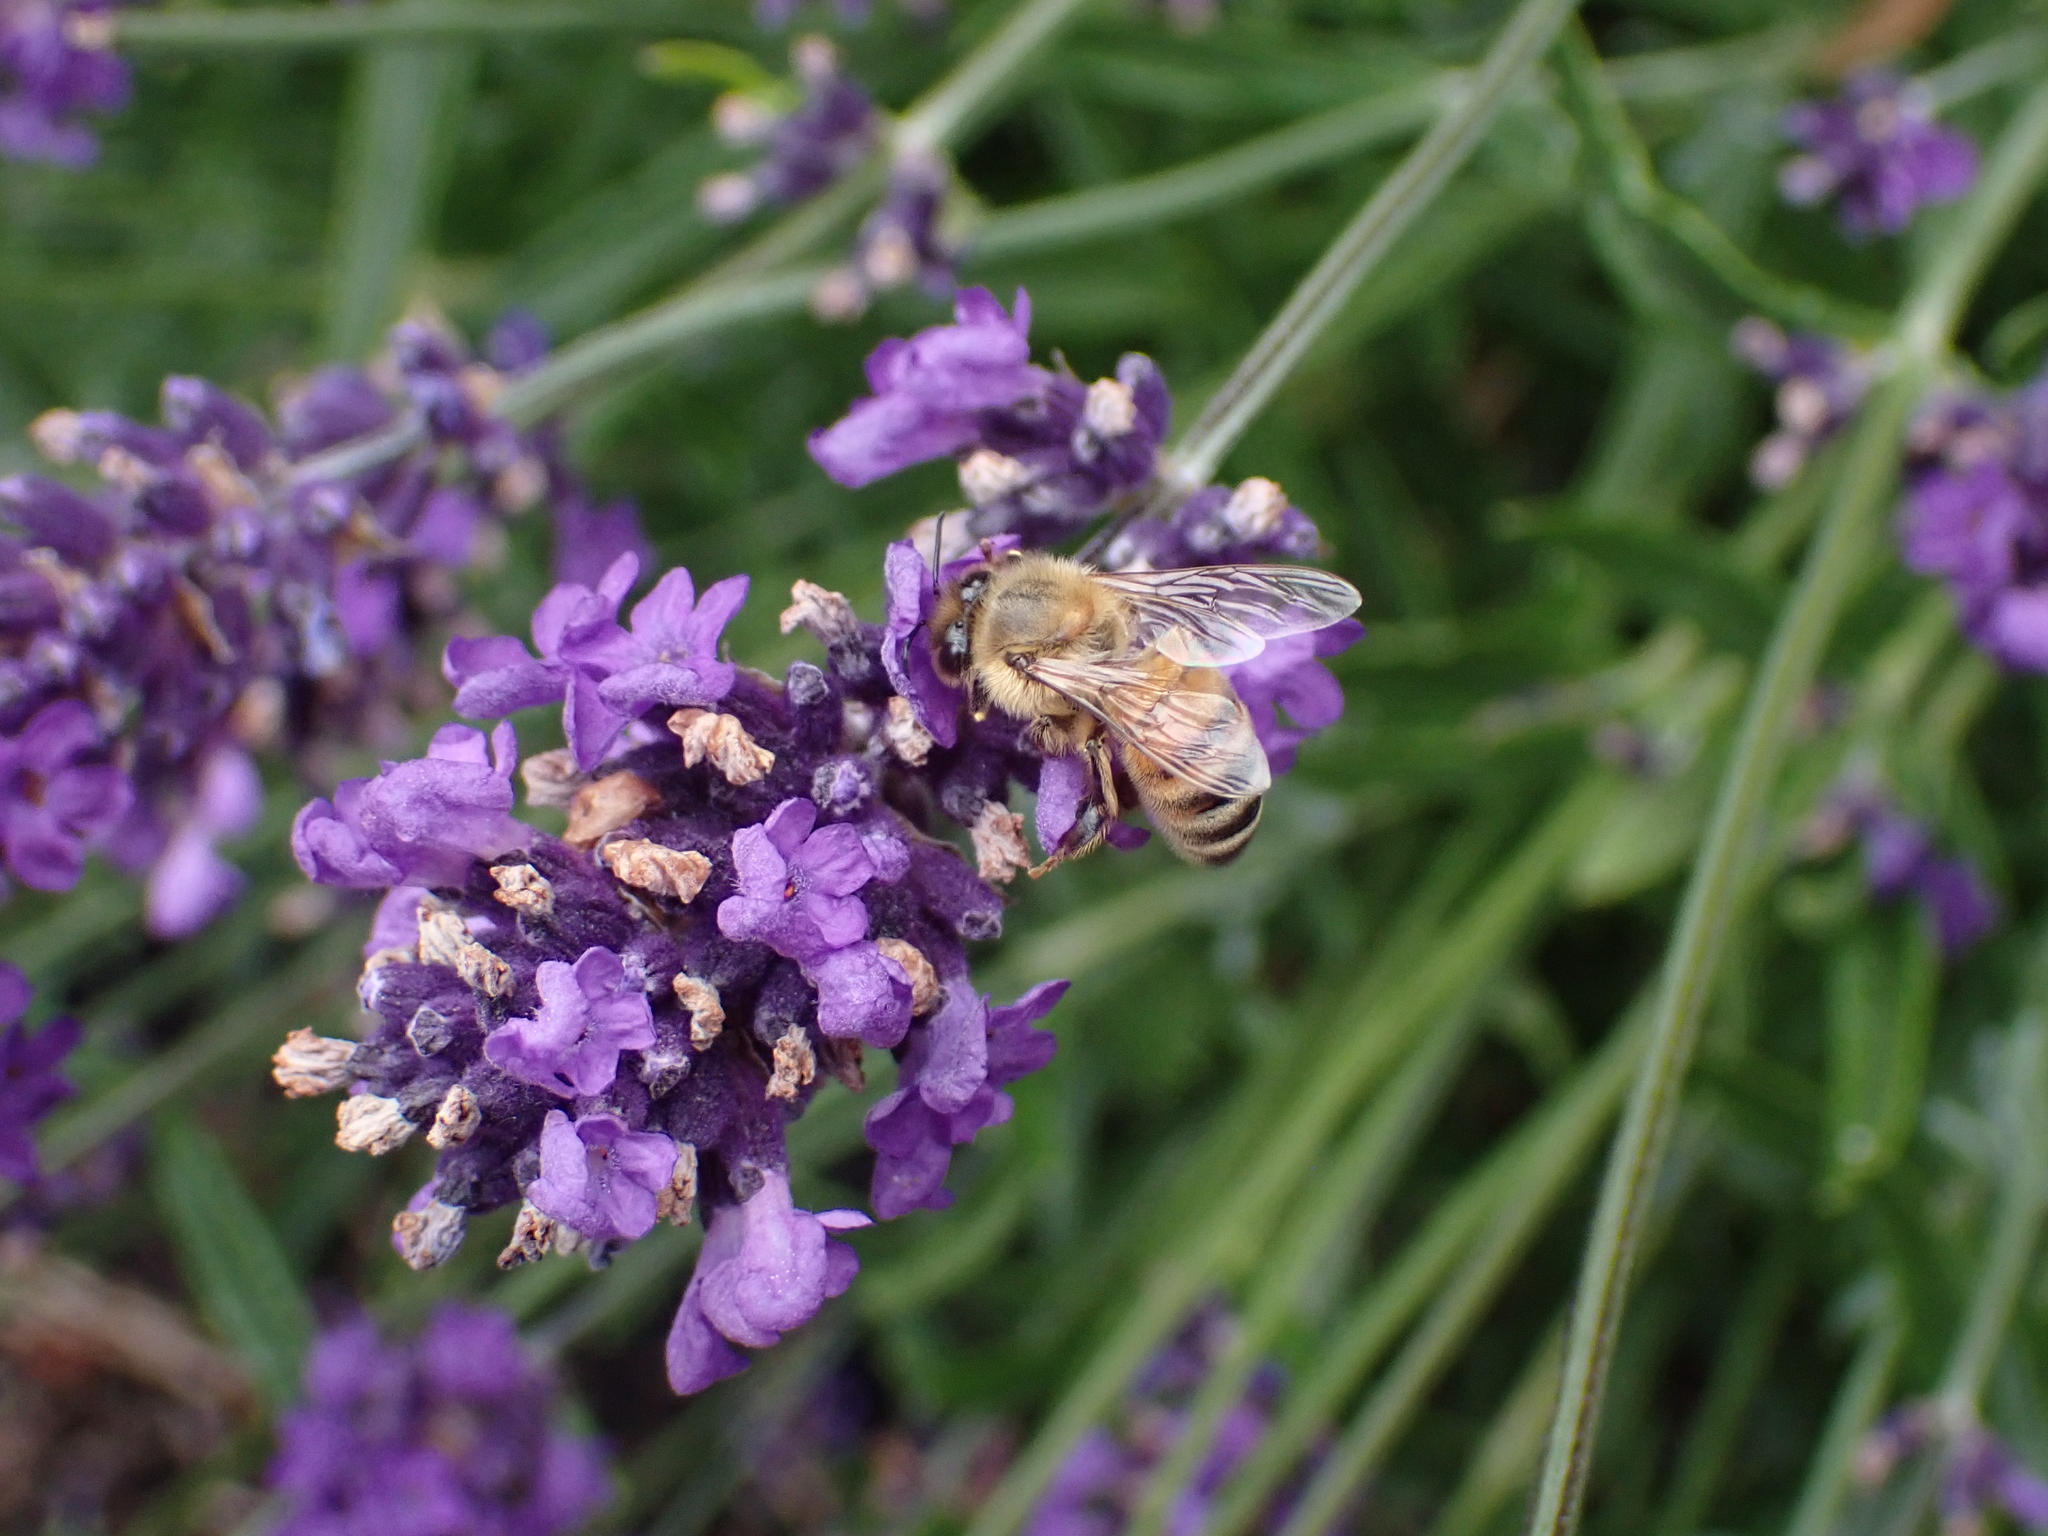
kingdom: Animalia
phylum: Arthropoda
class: Insecta
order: Hymenoptera
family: Apidae
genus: Apis
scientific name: Apis mellifera
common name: Honey bee
